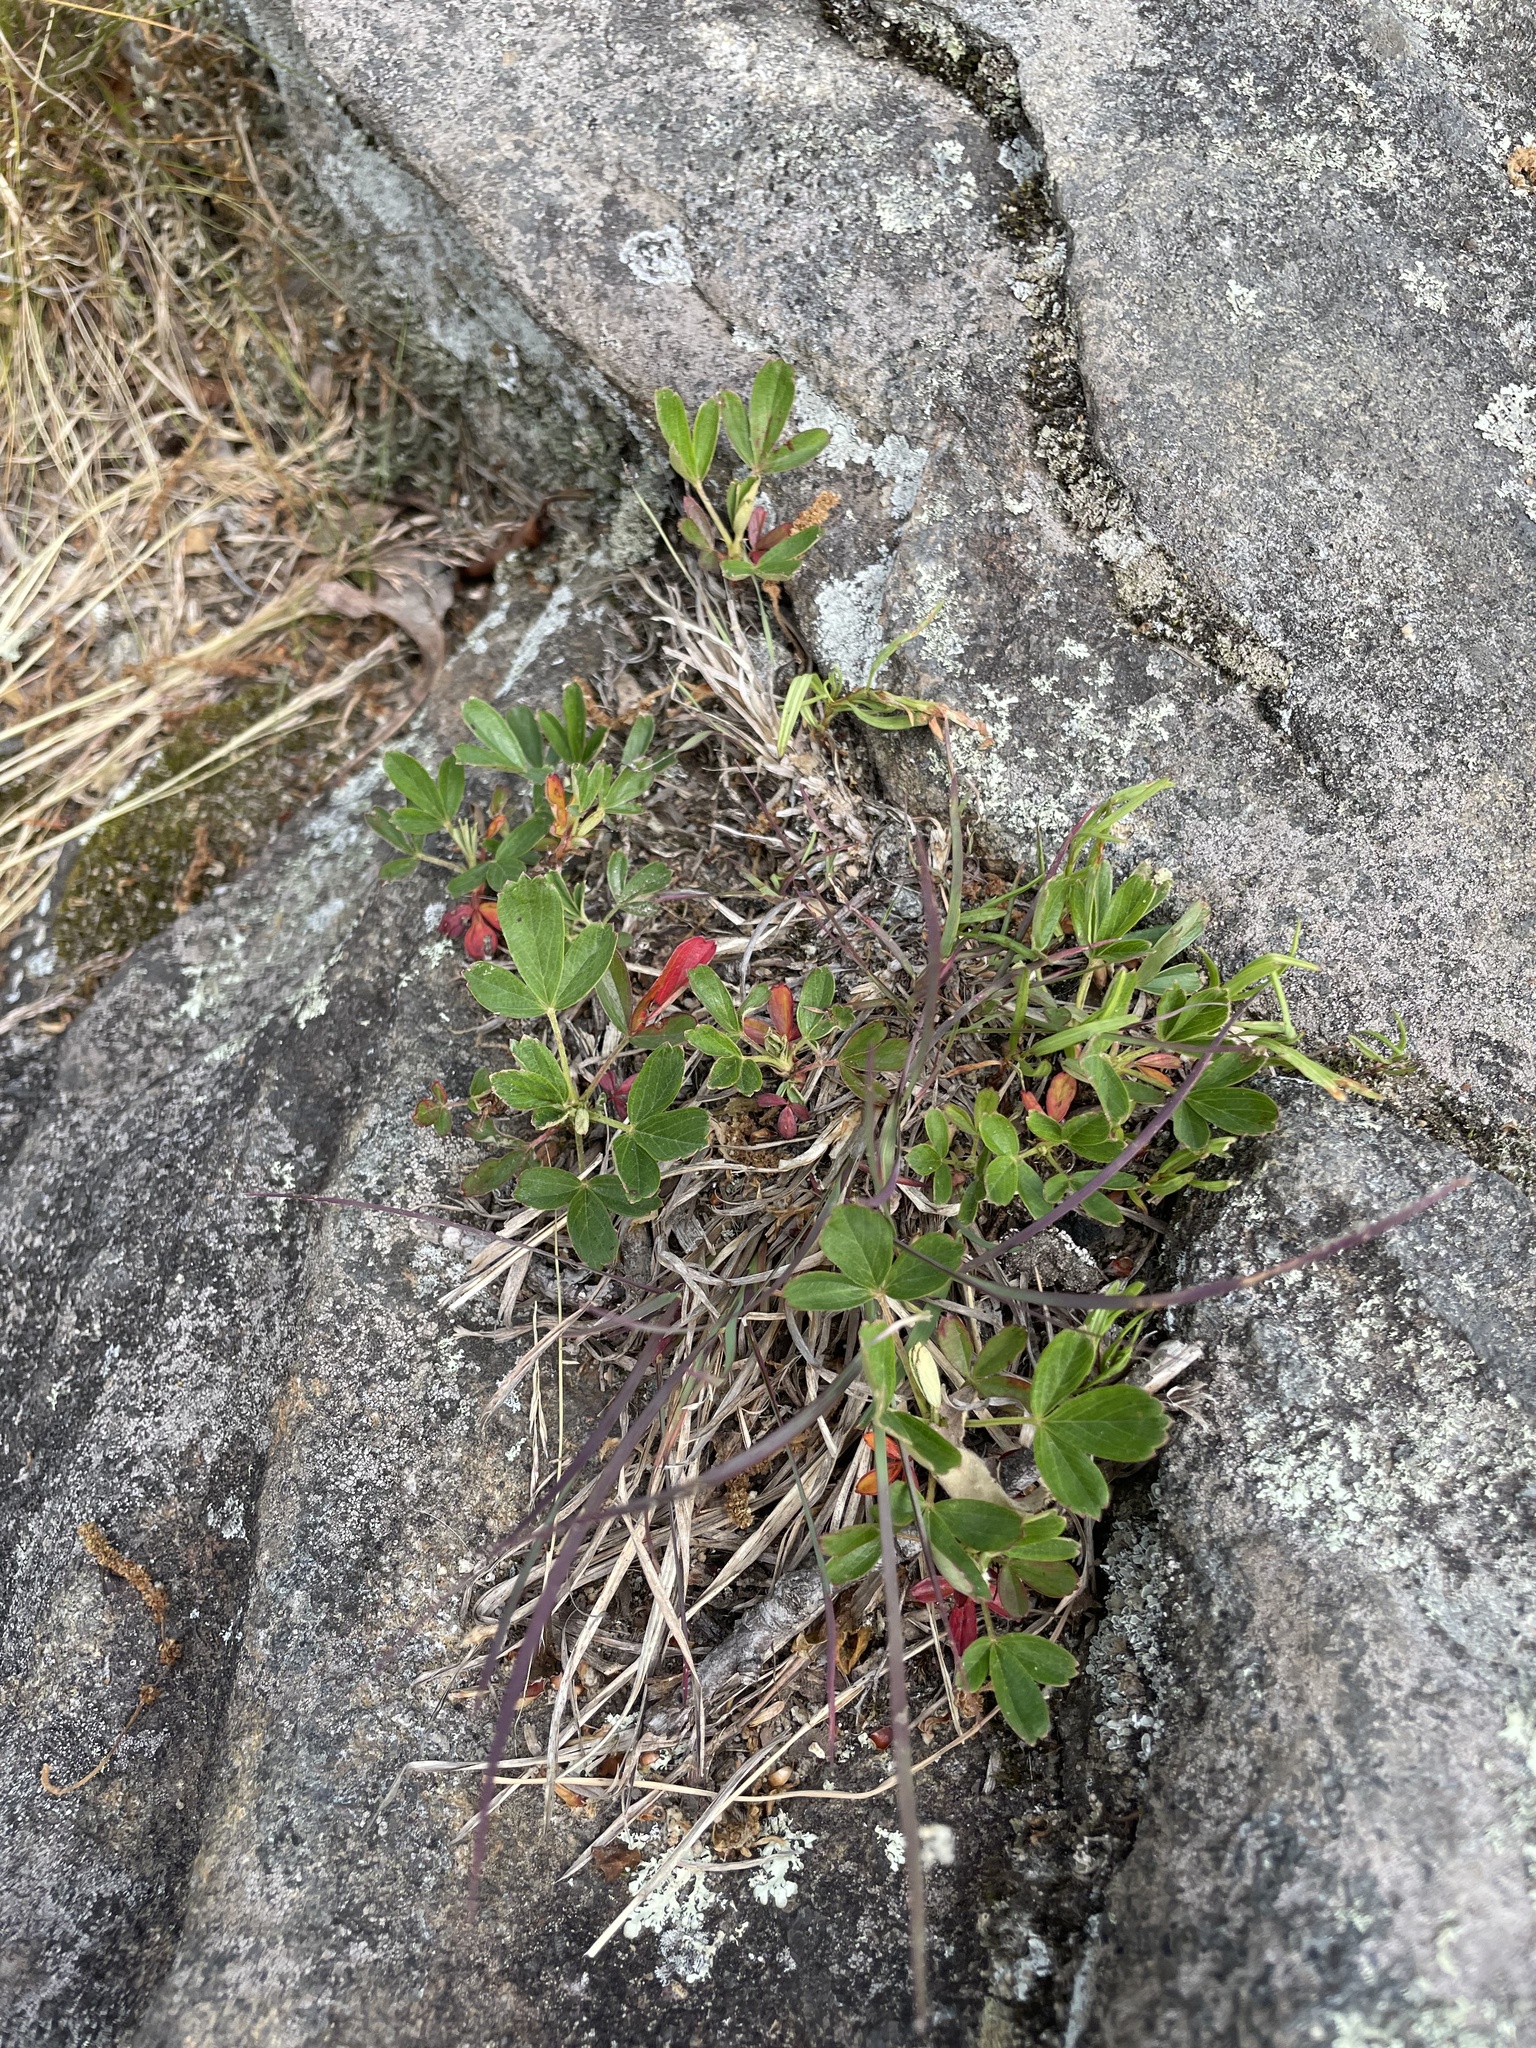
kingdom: Plantae
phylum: Tracheophyta
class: Magnoliopsida
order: Rosales
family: Rosaceae
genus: Sibbaldia
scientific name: Sibbaldia tridentata
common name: Three-toothed cinquefoil
